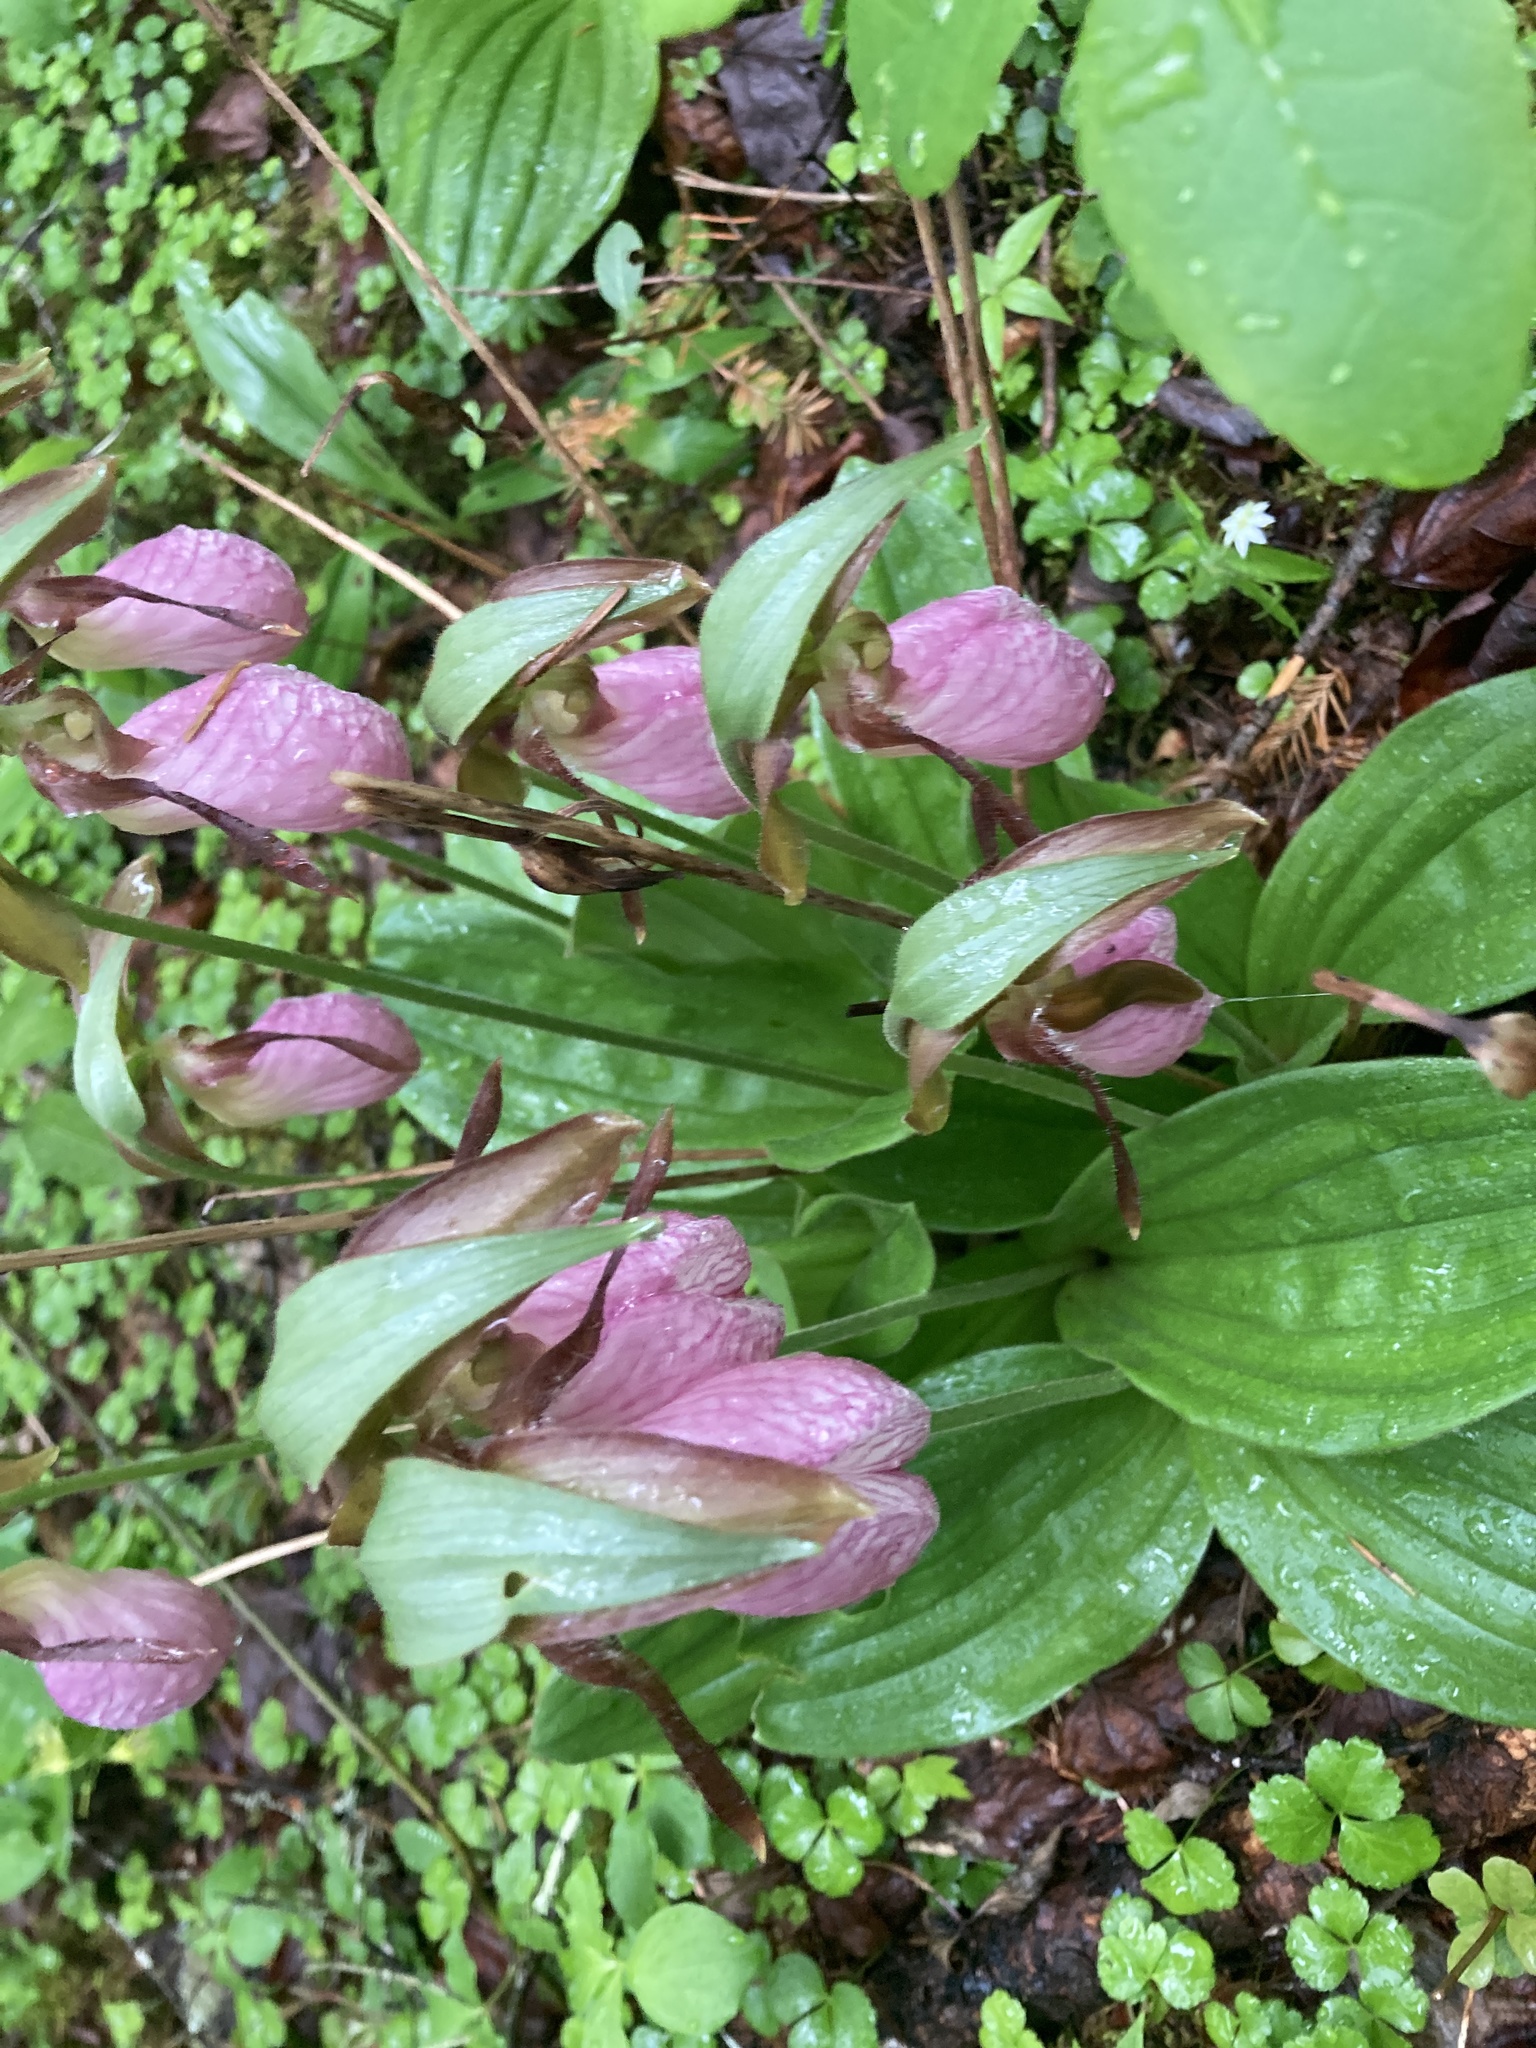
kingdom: Plantae
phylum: Tracheophyta
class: Liliopsida
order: Asparagales
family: Orchidaceae
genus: Cypripedium
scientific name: Cypripedium acaule
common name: Pink lady's-slipper
